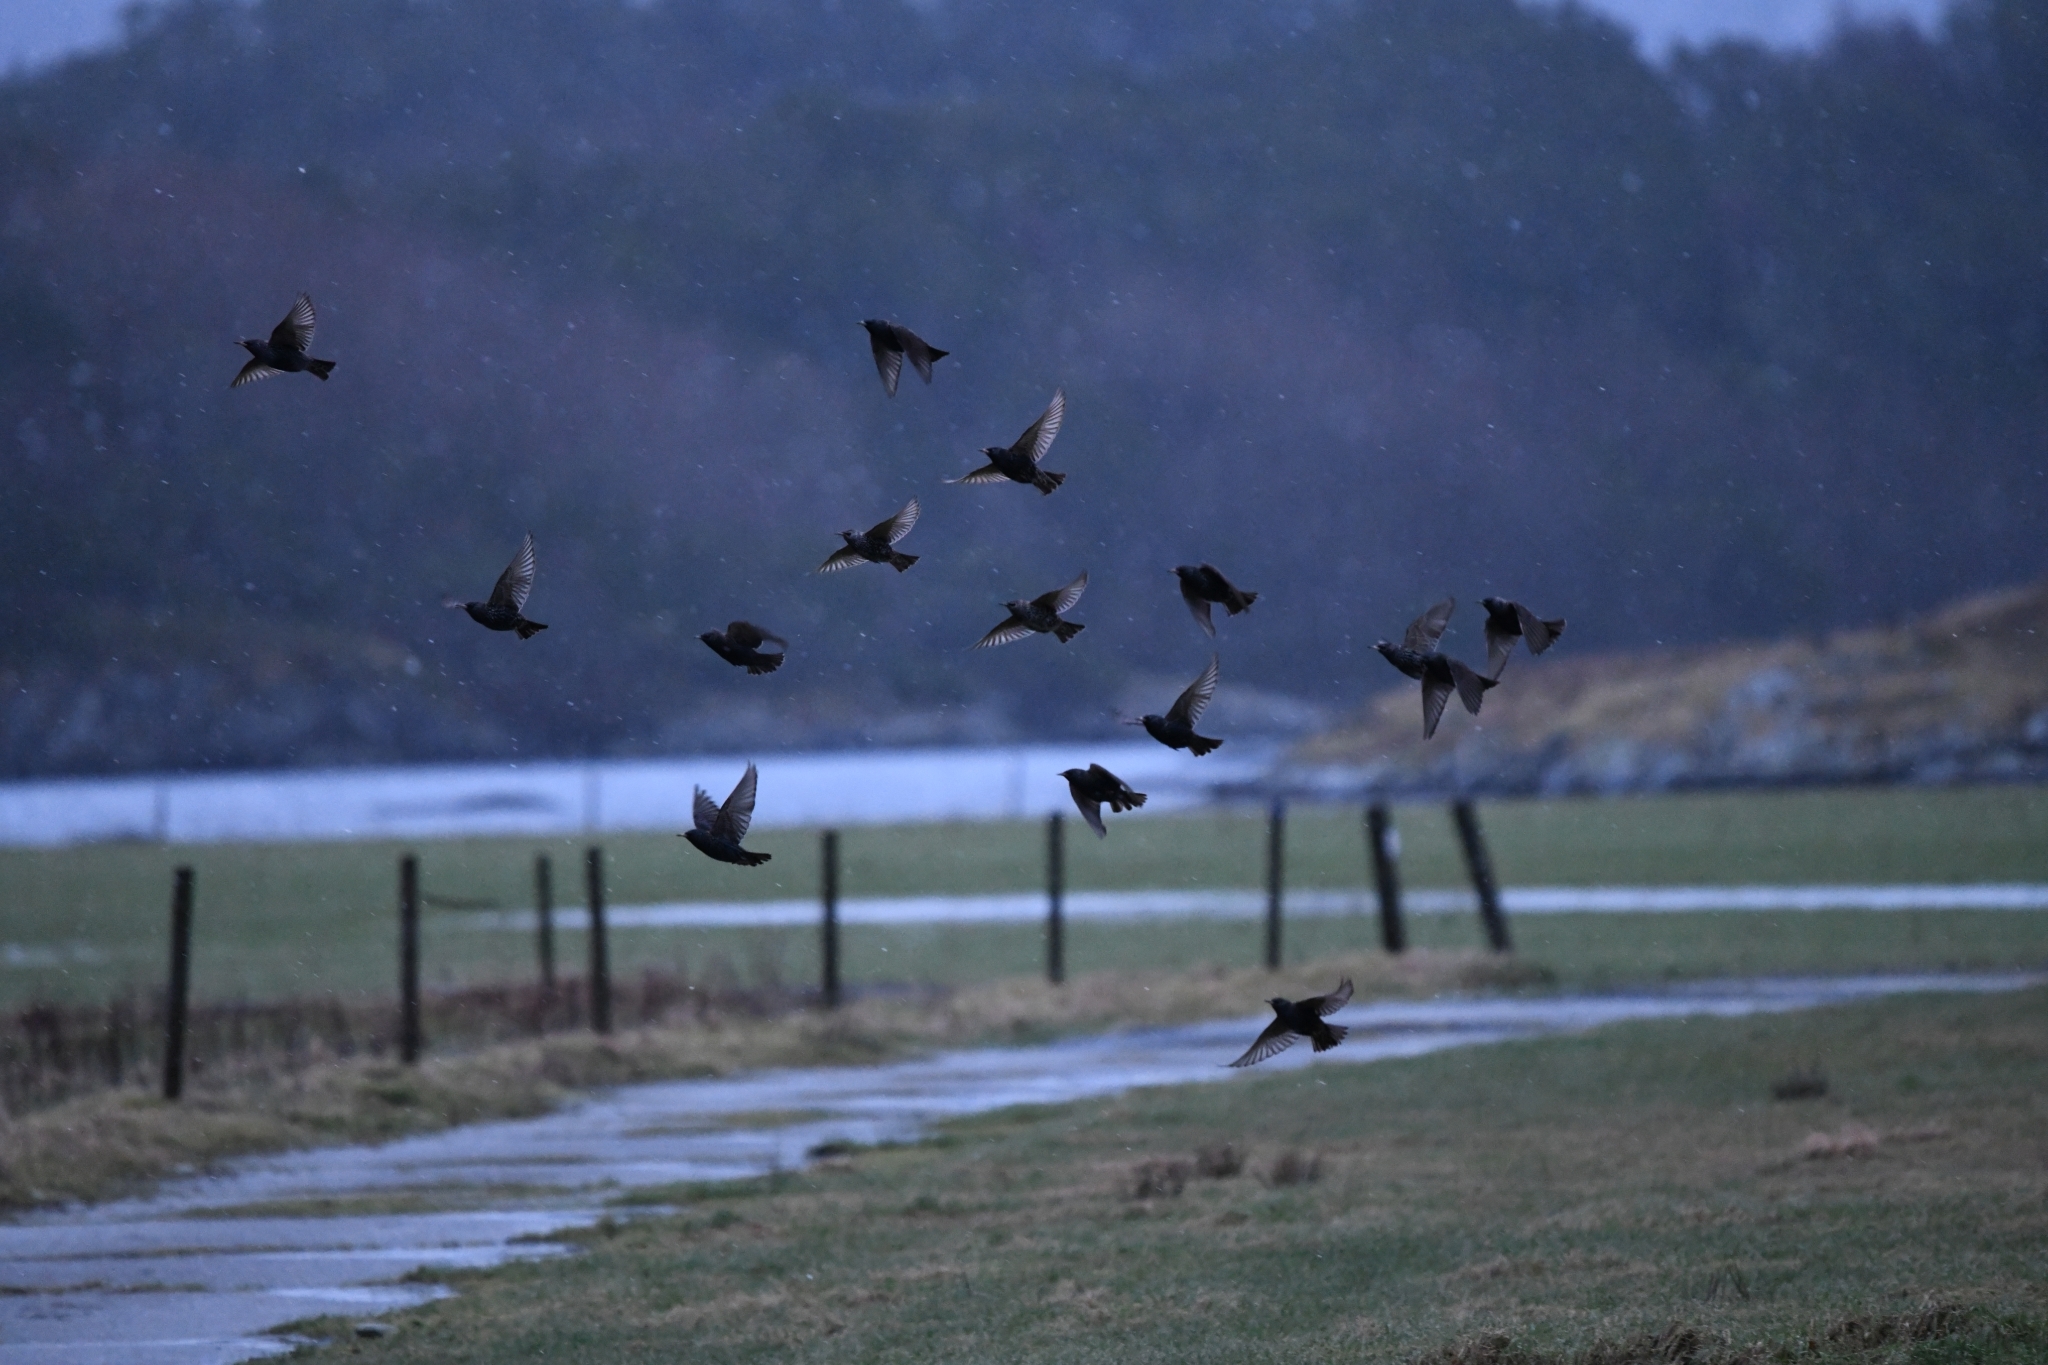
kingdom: Animalia
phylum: Chordata
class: Aves
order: Passeriformes
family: Sturnidae
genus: Sturnus
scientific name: Sturnus vulgaris
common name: Common starling
